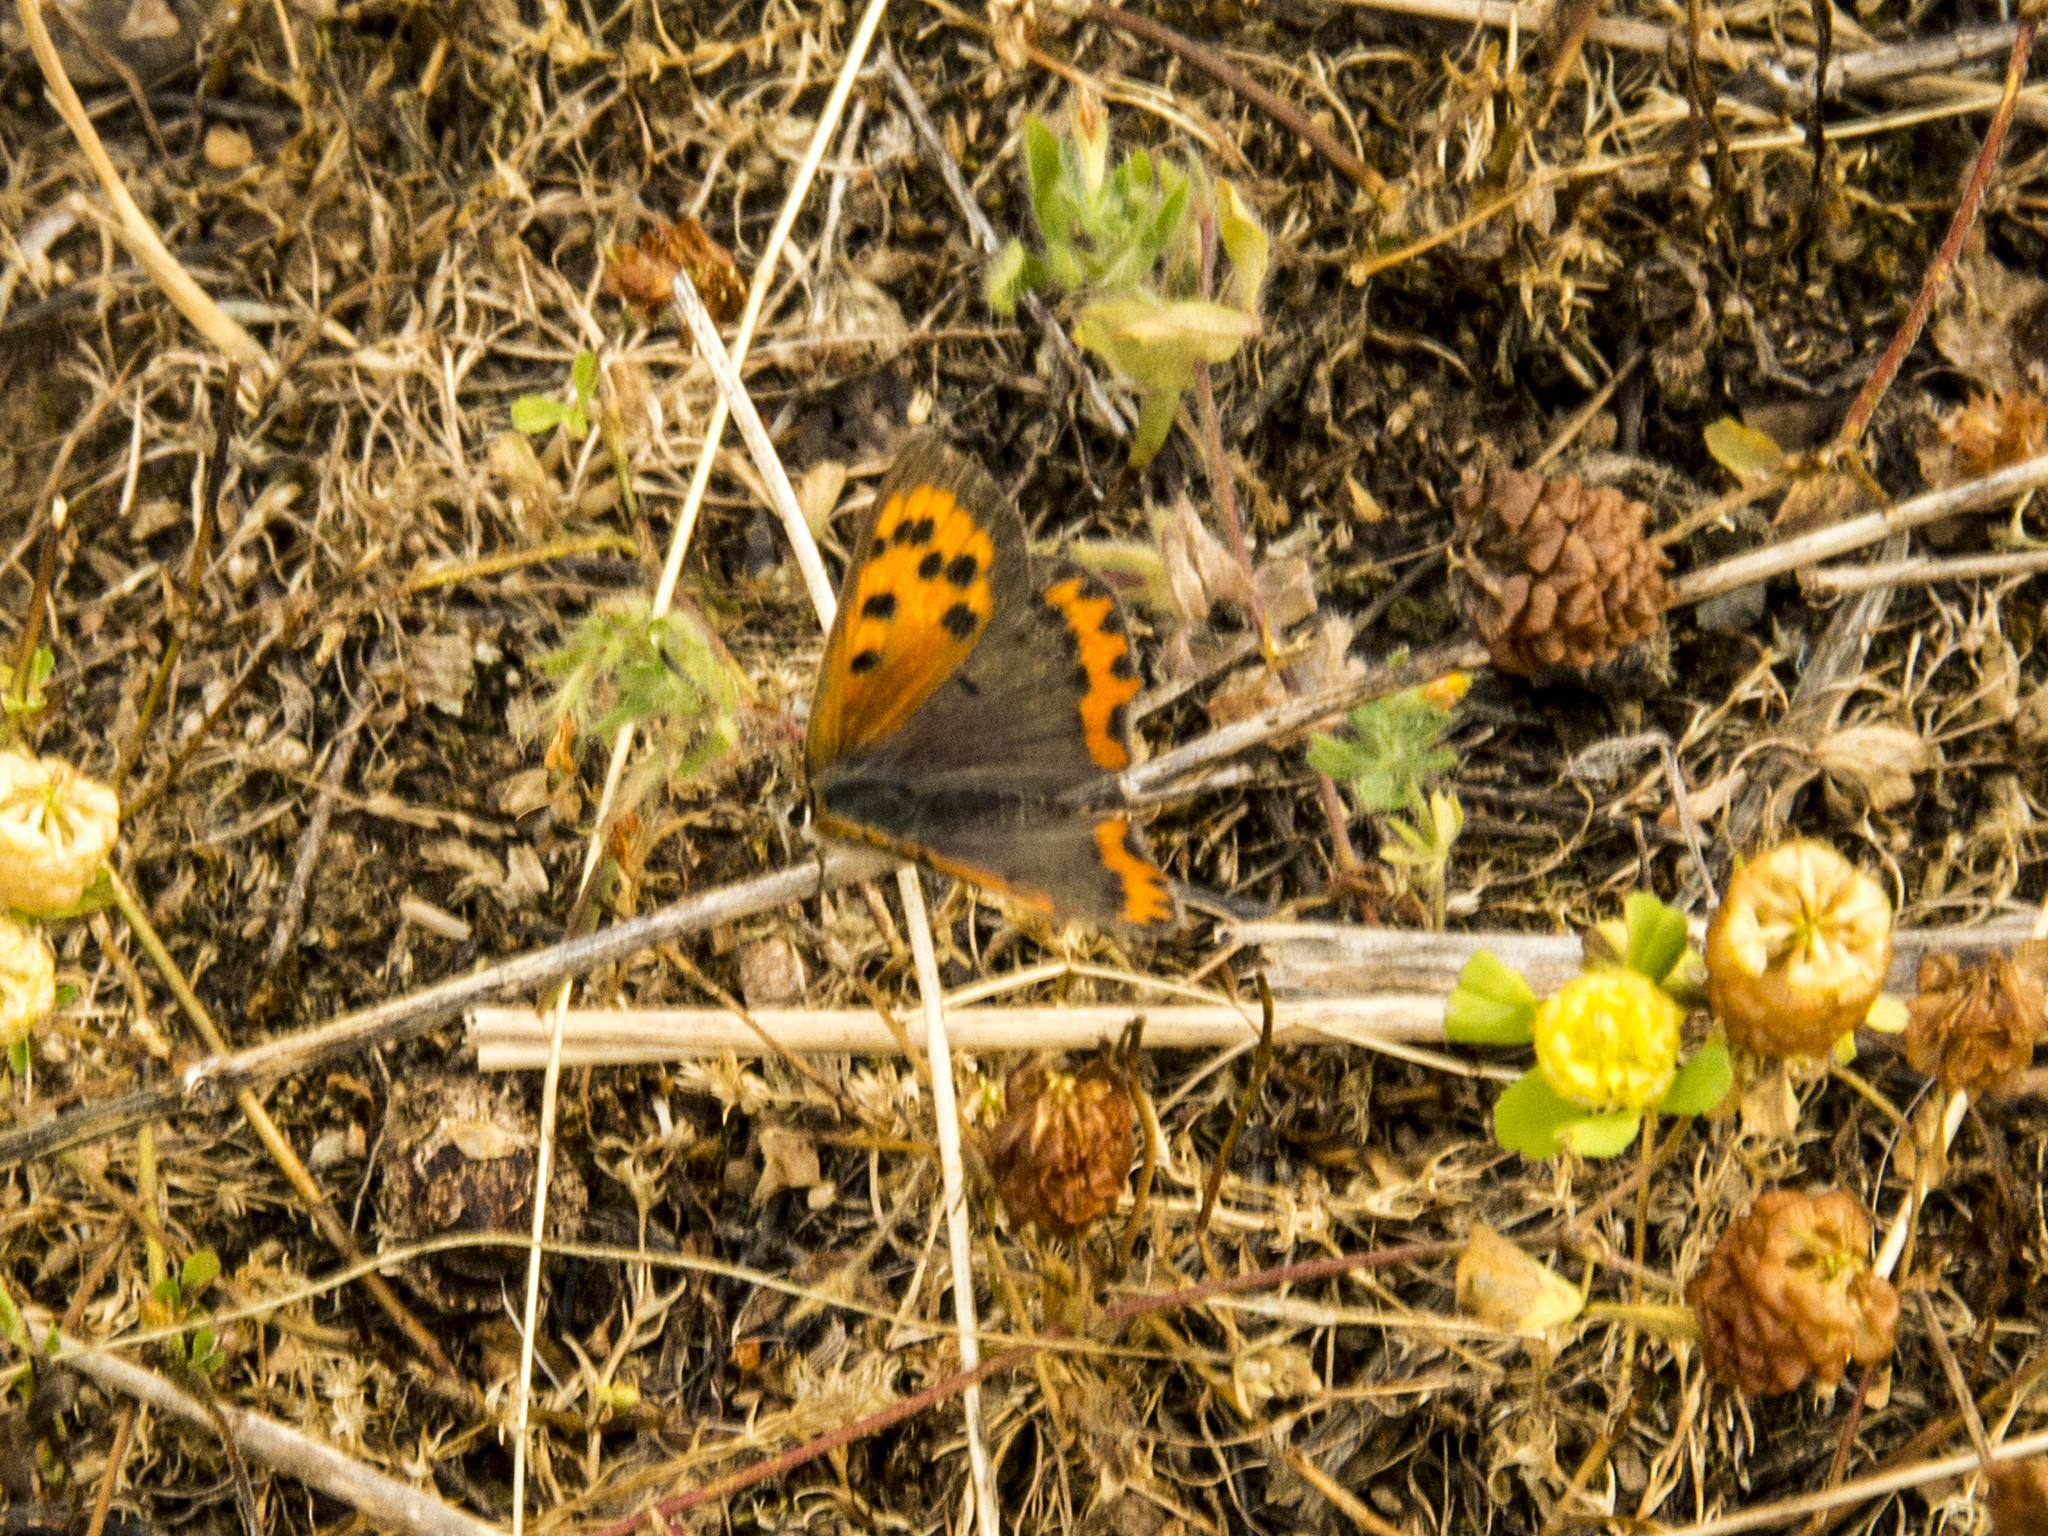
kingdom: Animalia
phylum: Arthropoda
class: Insecta
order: Lepidoptera
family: Lycaenidae
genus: Lycaena
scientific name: Lycaena phlaeas
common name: Small copper
